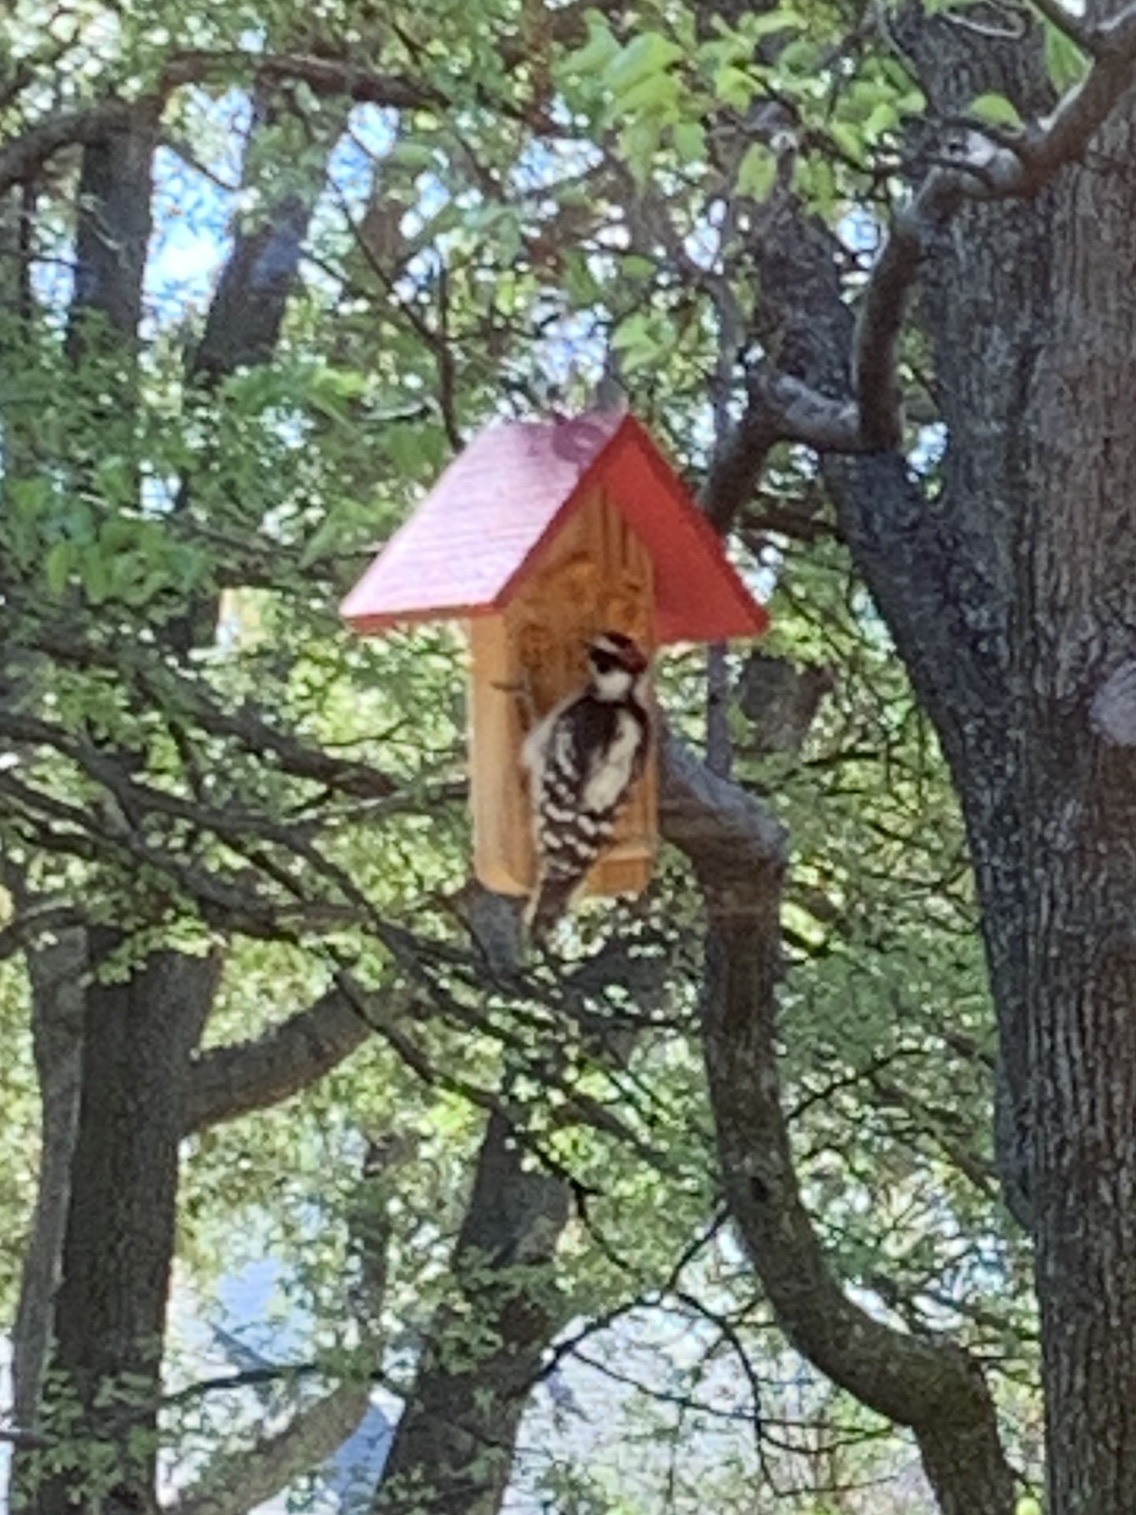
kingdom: Animalia
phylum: Chordata
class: Aves
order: Piciformes
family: Picidae
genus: Dryobates
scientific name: Dryobates pubescens
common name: Downy woodpecker
